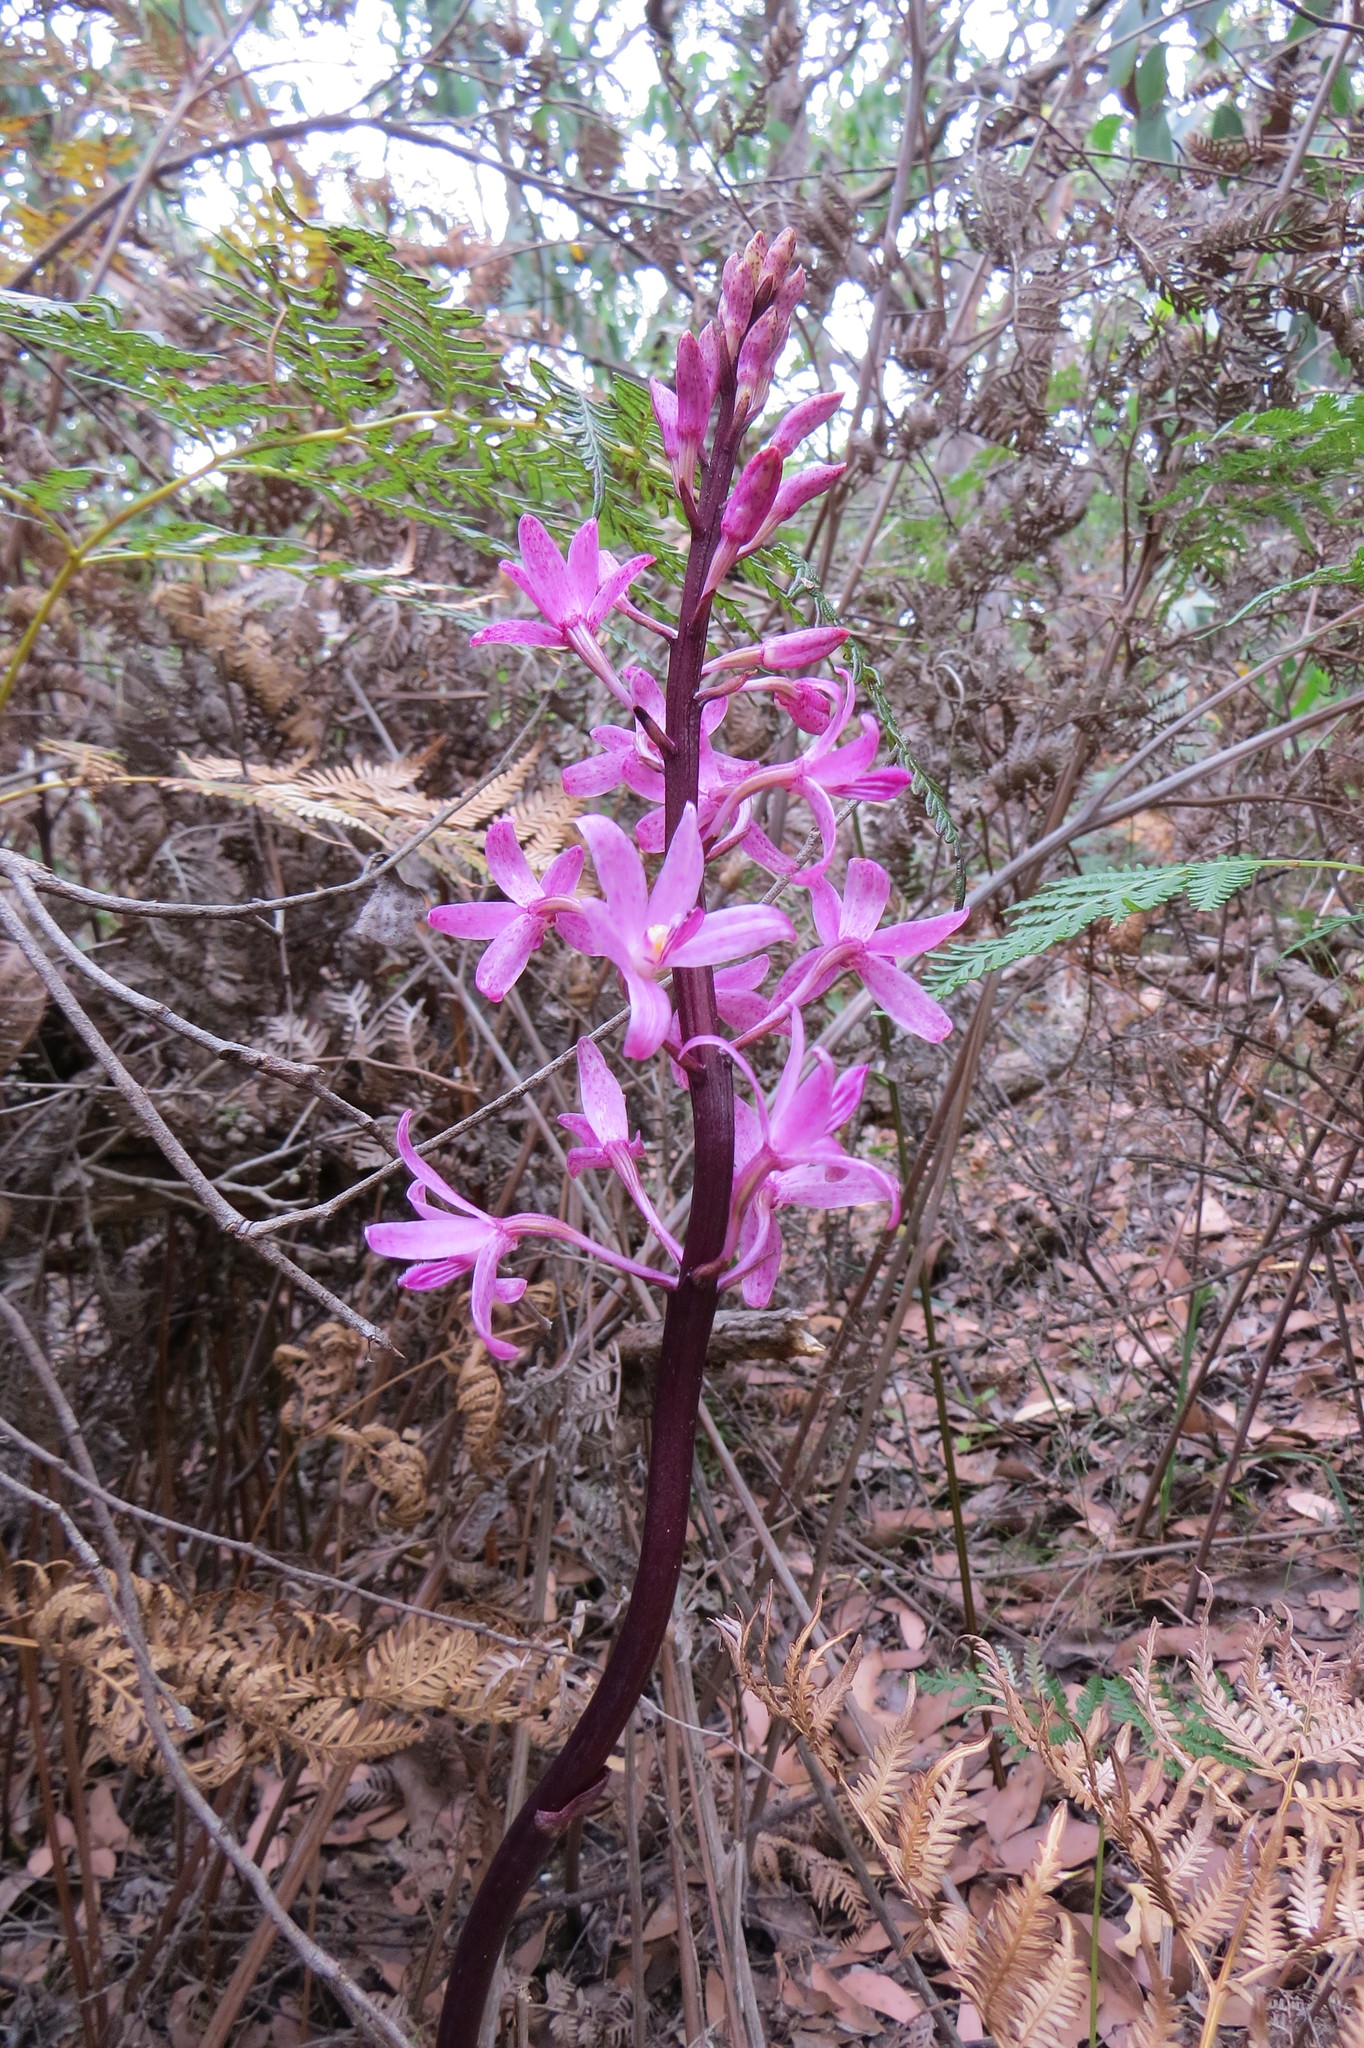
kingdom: Plantae
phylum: Tracheophyta
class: Liliopsida
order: Asparagales
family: Orchidaceae
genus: Dipodium
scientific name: Dipodium roseum
